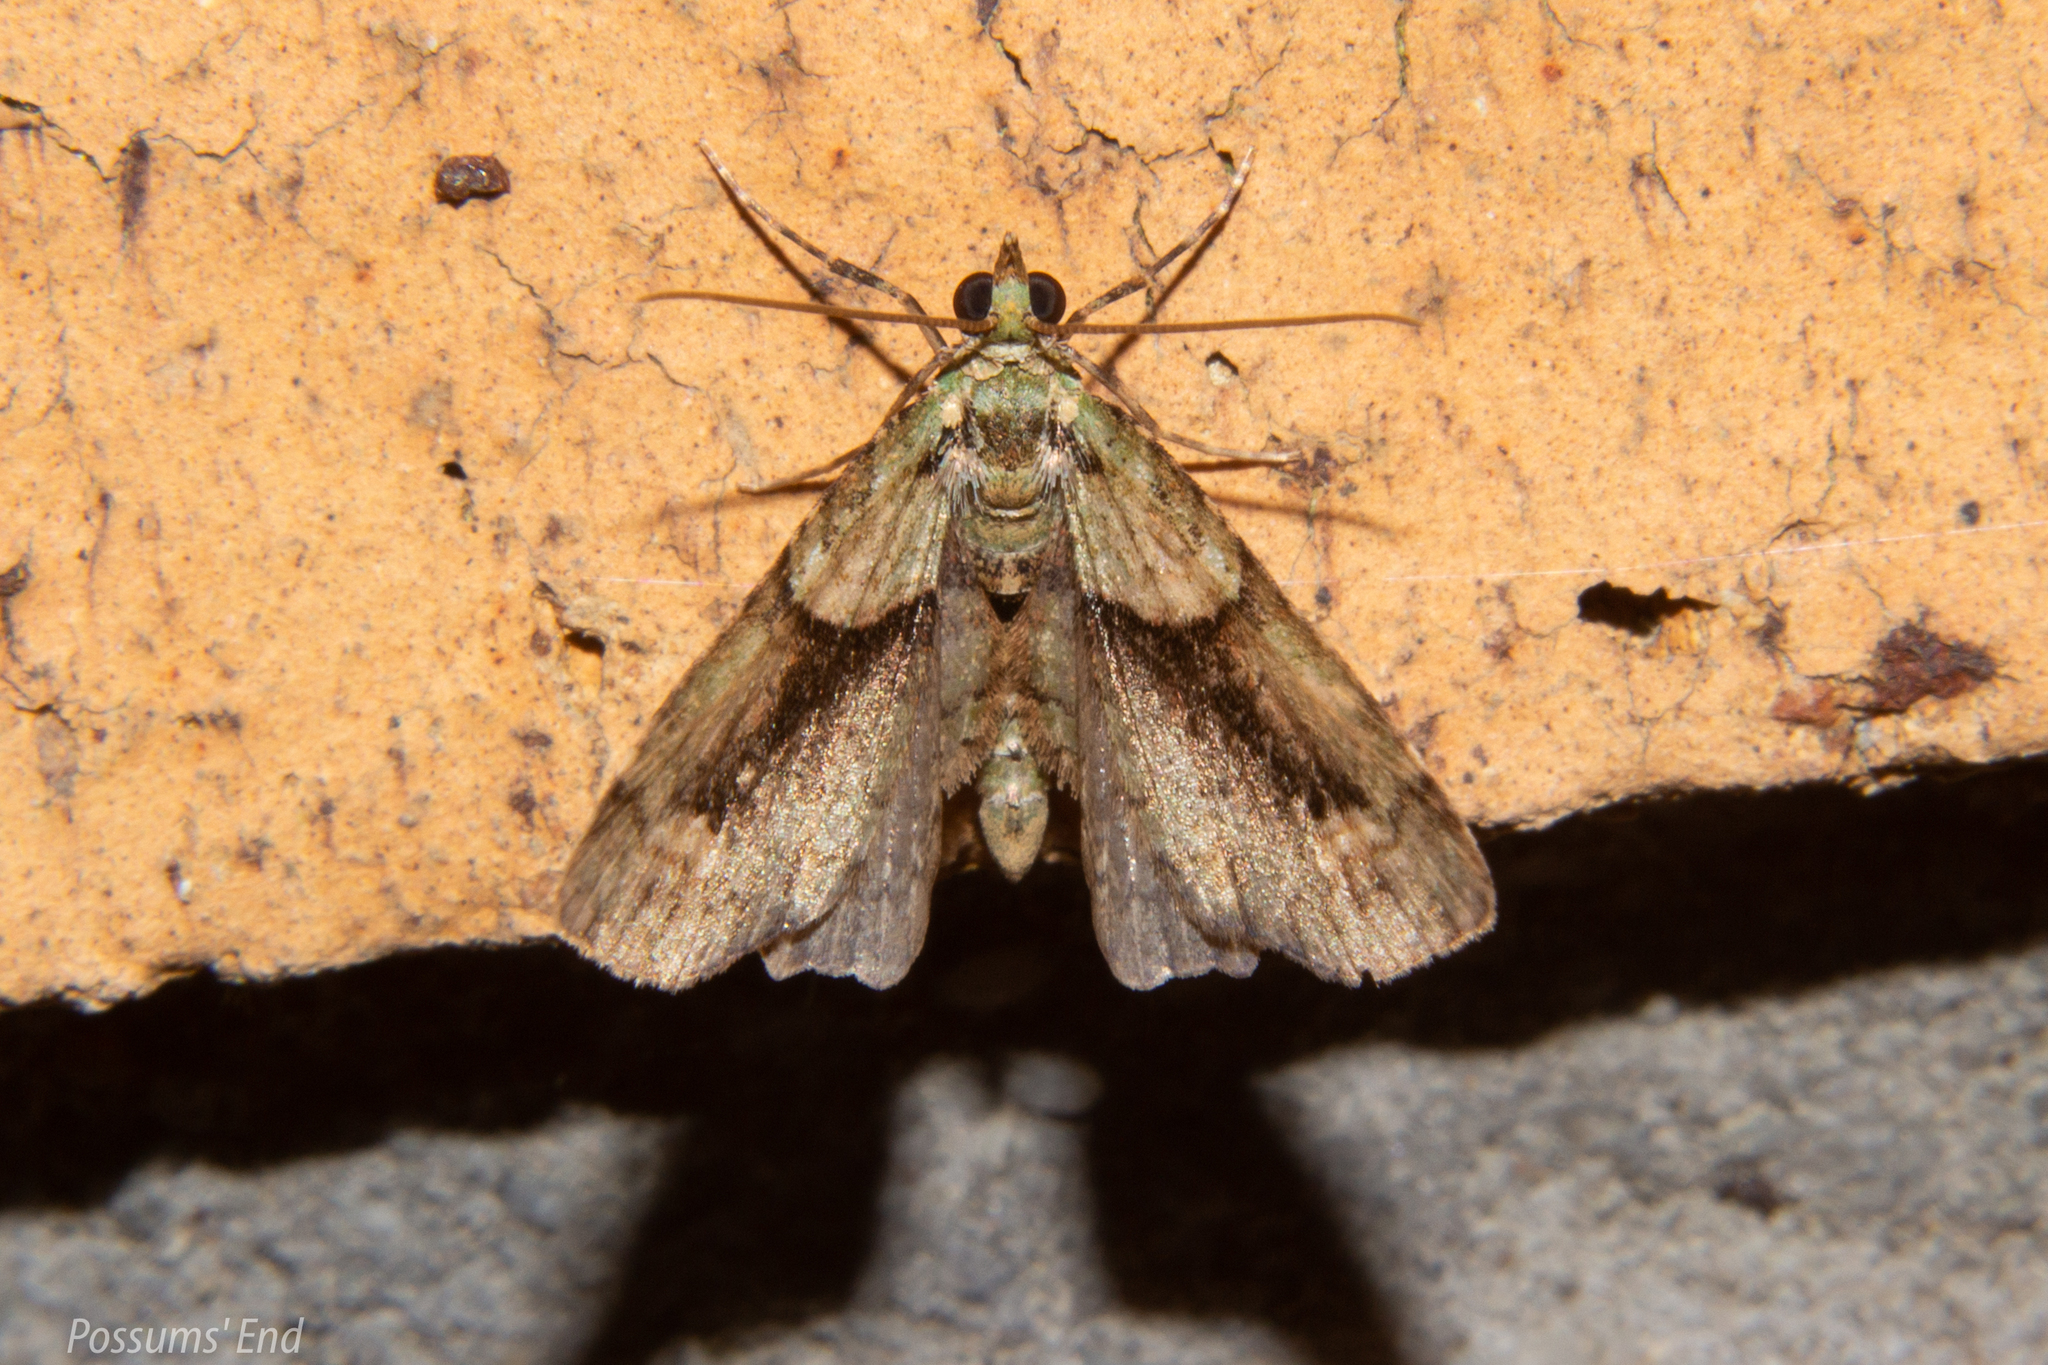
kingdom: Animalia
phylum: Arthropoda
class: Insecta
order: Lepidoptera
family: Geometridae
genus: Pasiphila
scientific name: Pasiphila suffusa
